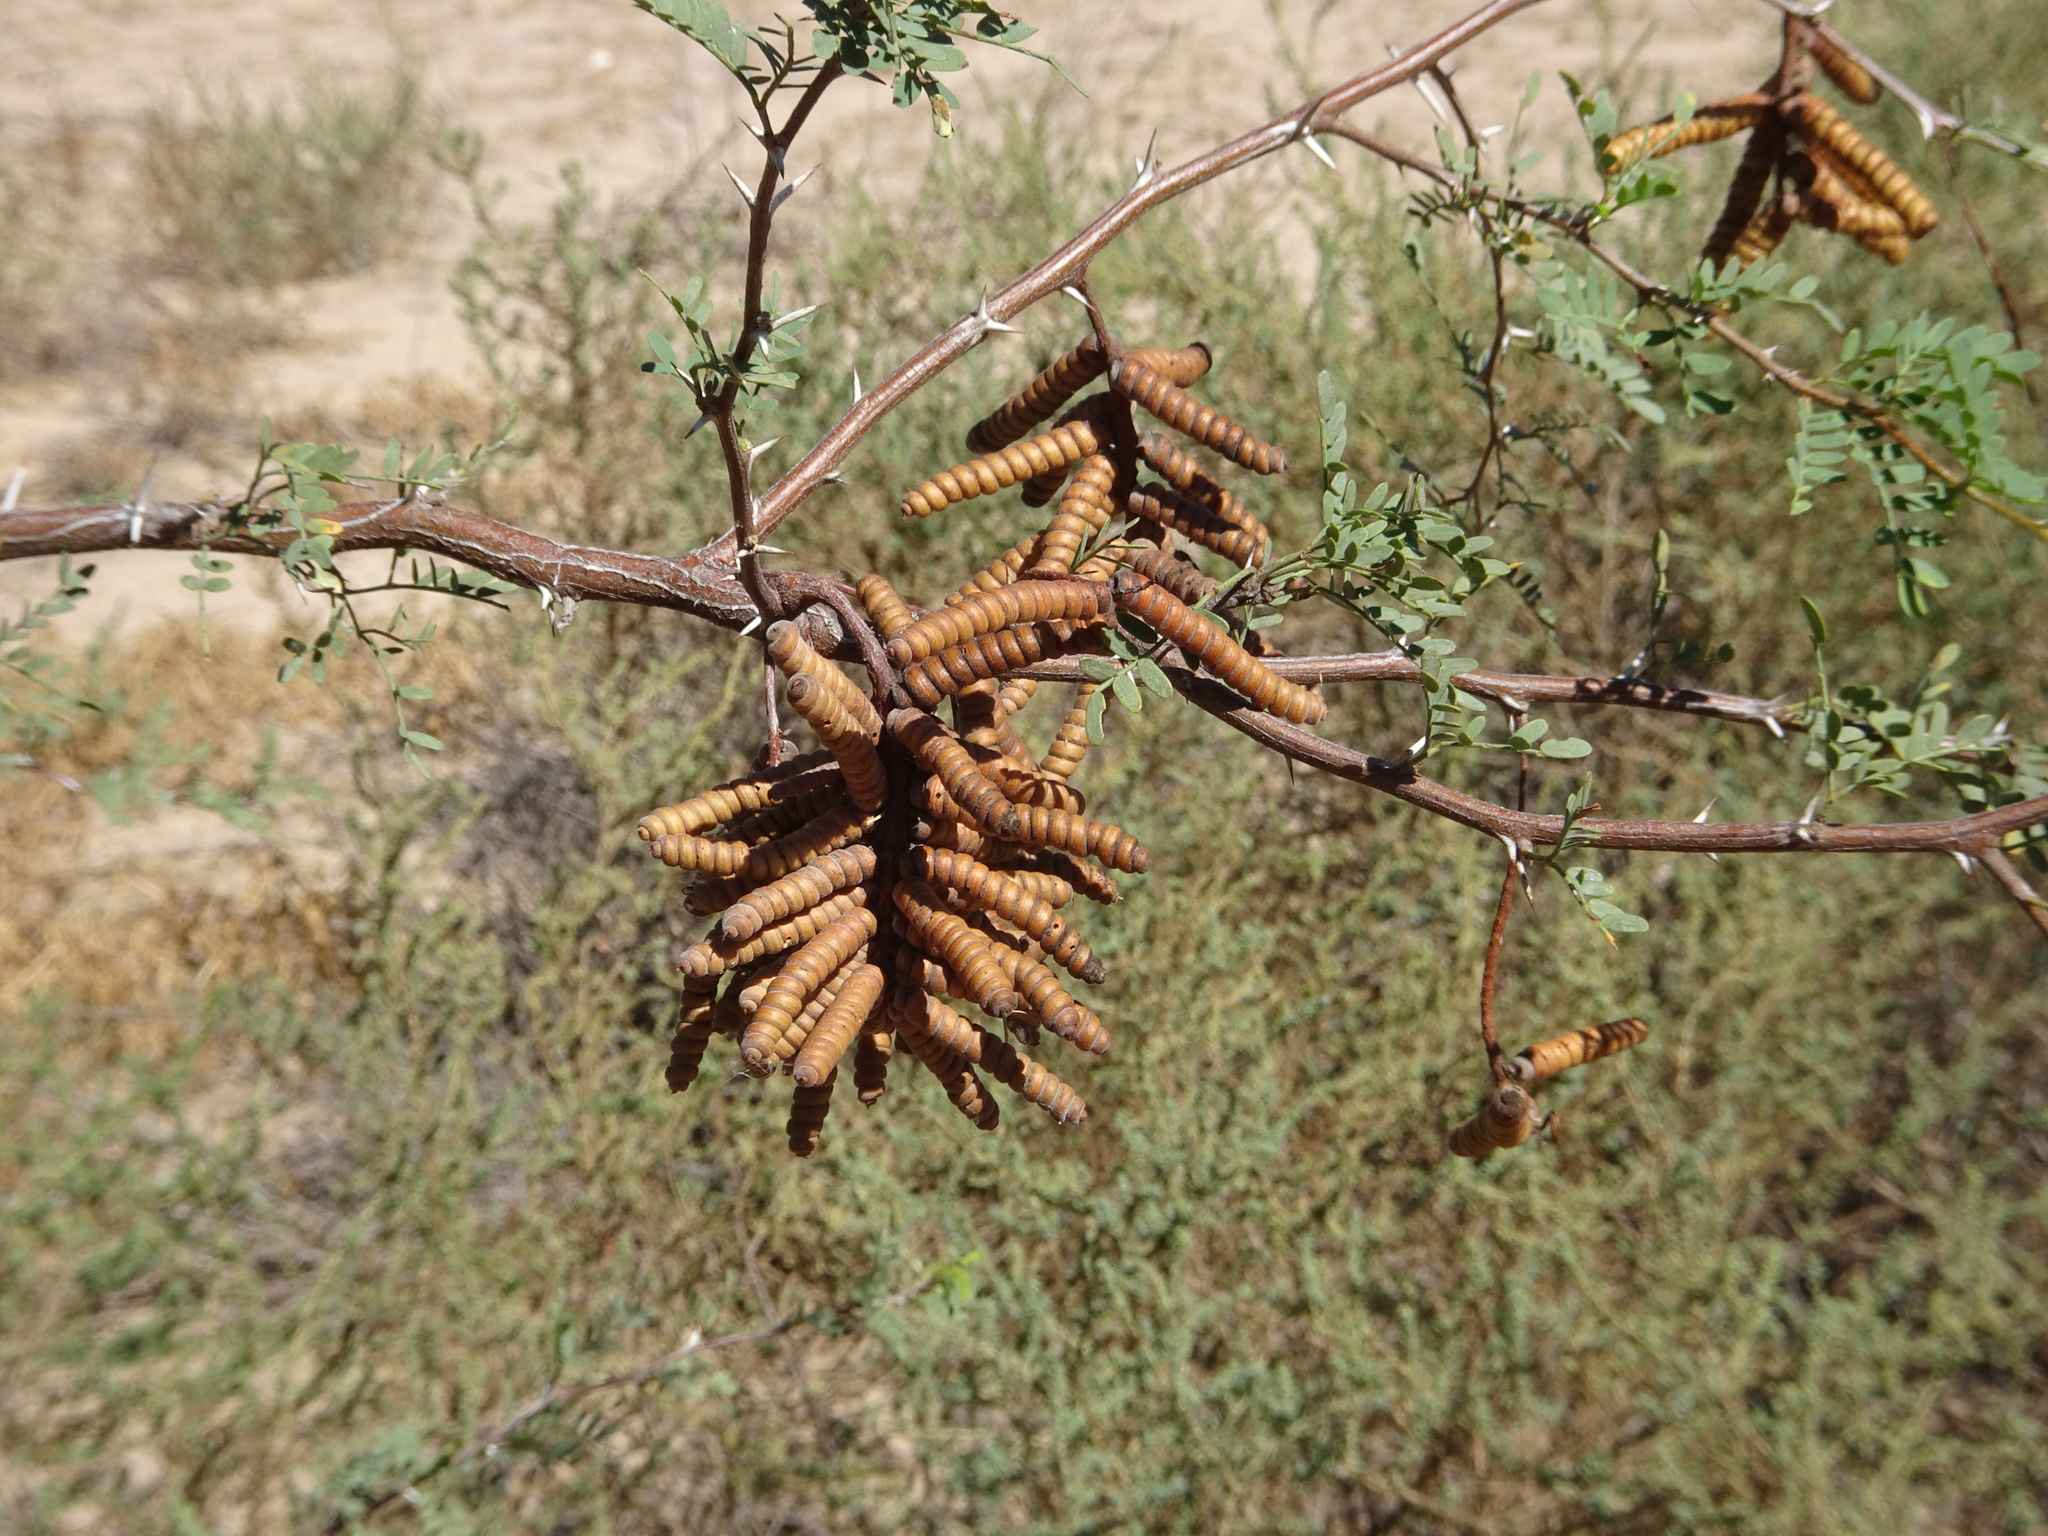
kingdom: Plantae
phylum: Tracheophyta
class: Magnoliopsida
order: Fabales
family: Fabaceae
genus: Prosopis
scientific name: Prosopis pubescens
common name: Screw-bean
